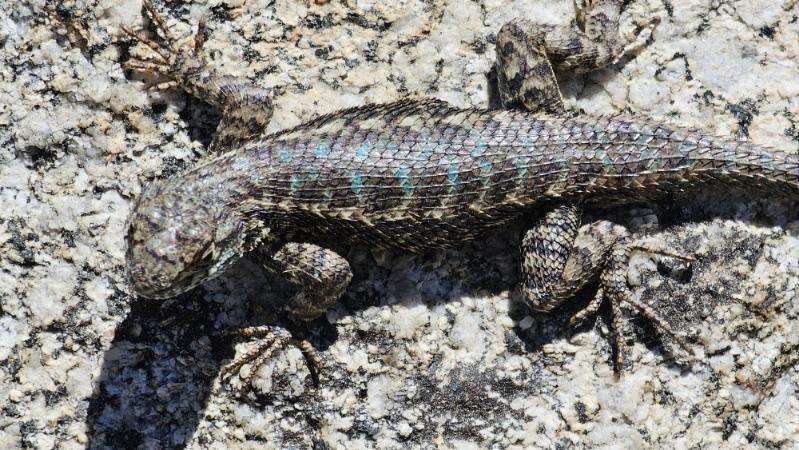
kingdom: Animalia
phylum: Chordata
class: Squamata
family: Phrynosomatidae
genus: Sceloporus
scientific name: Sceloporus occidentalis
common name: Western fence lizard
